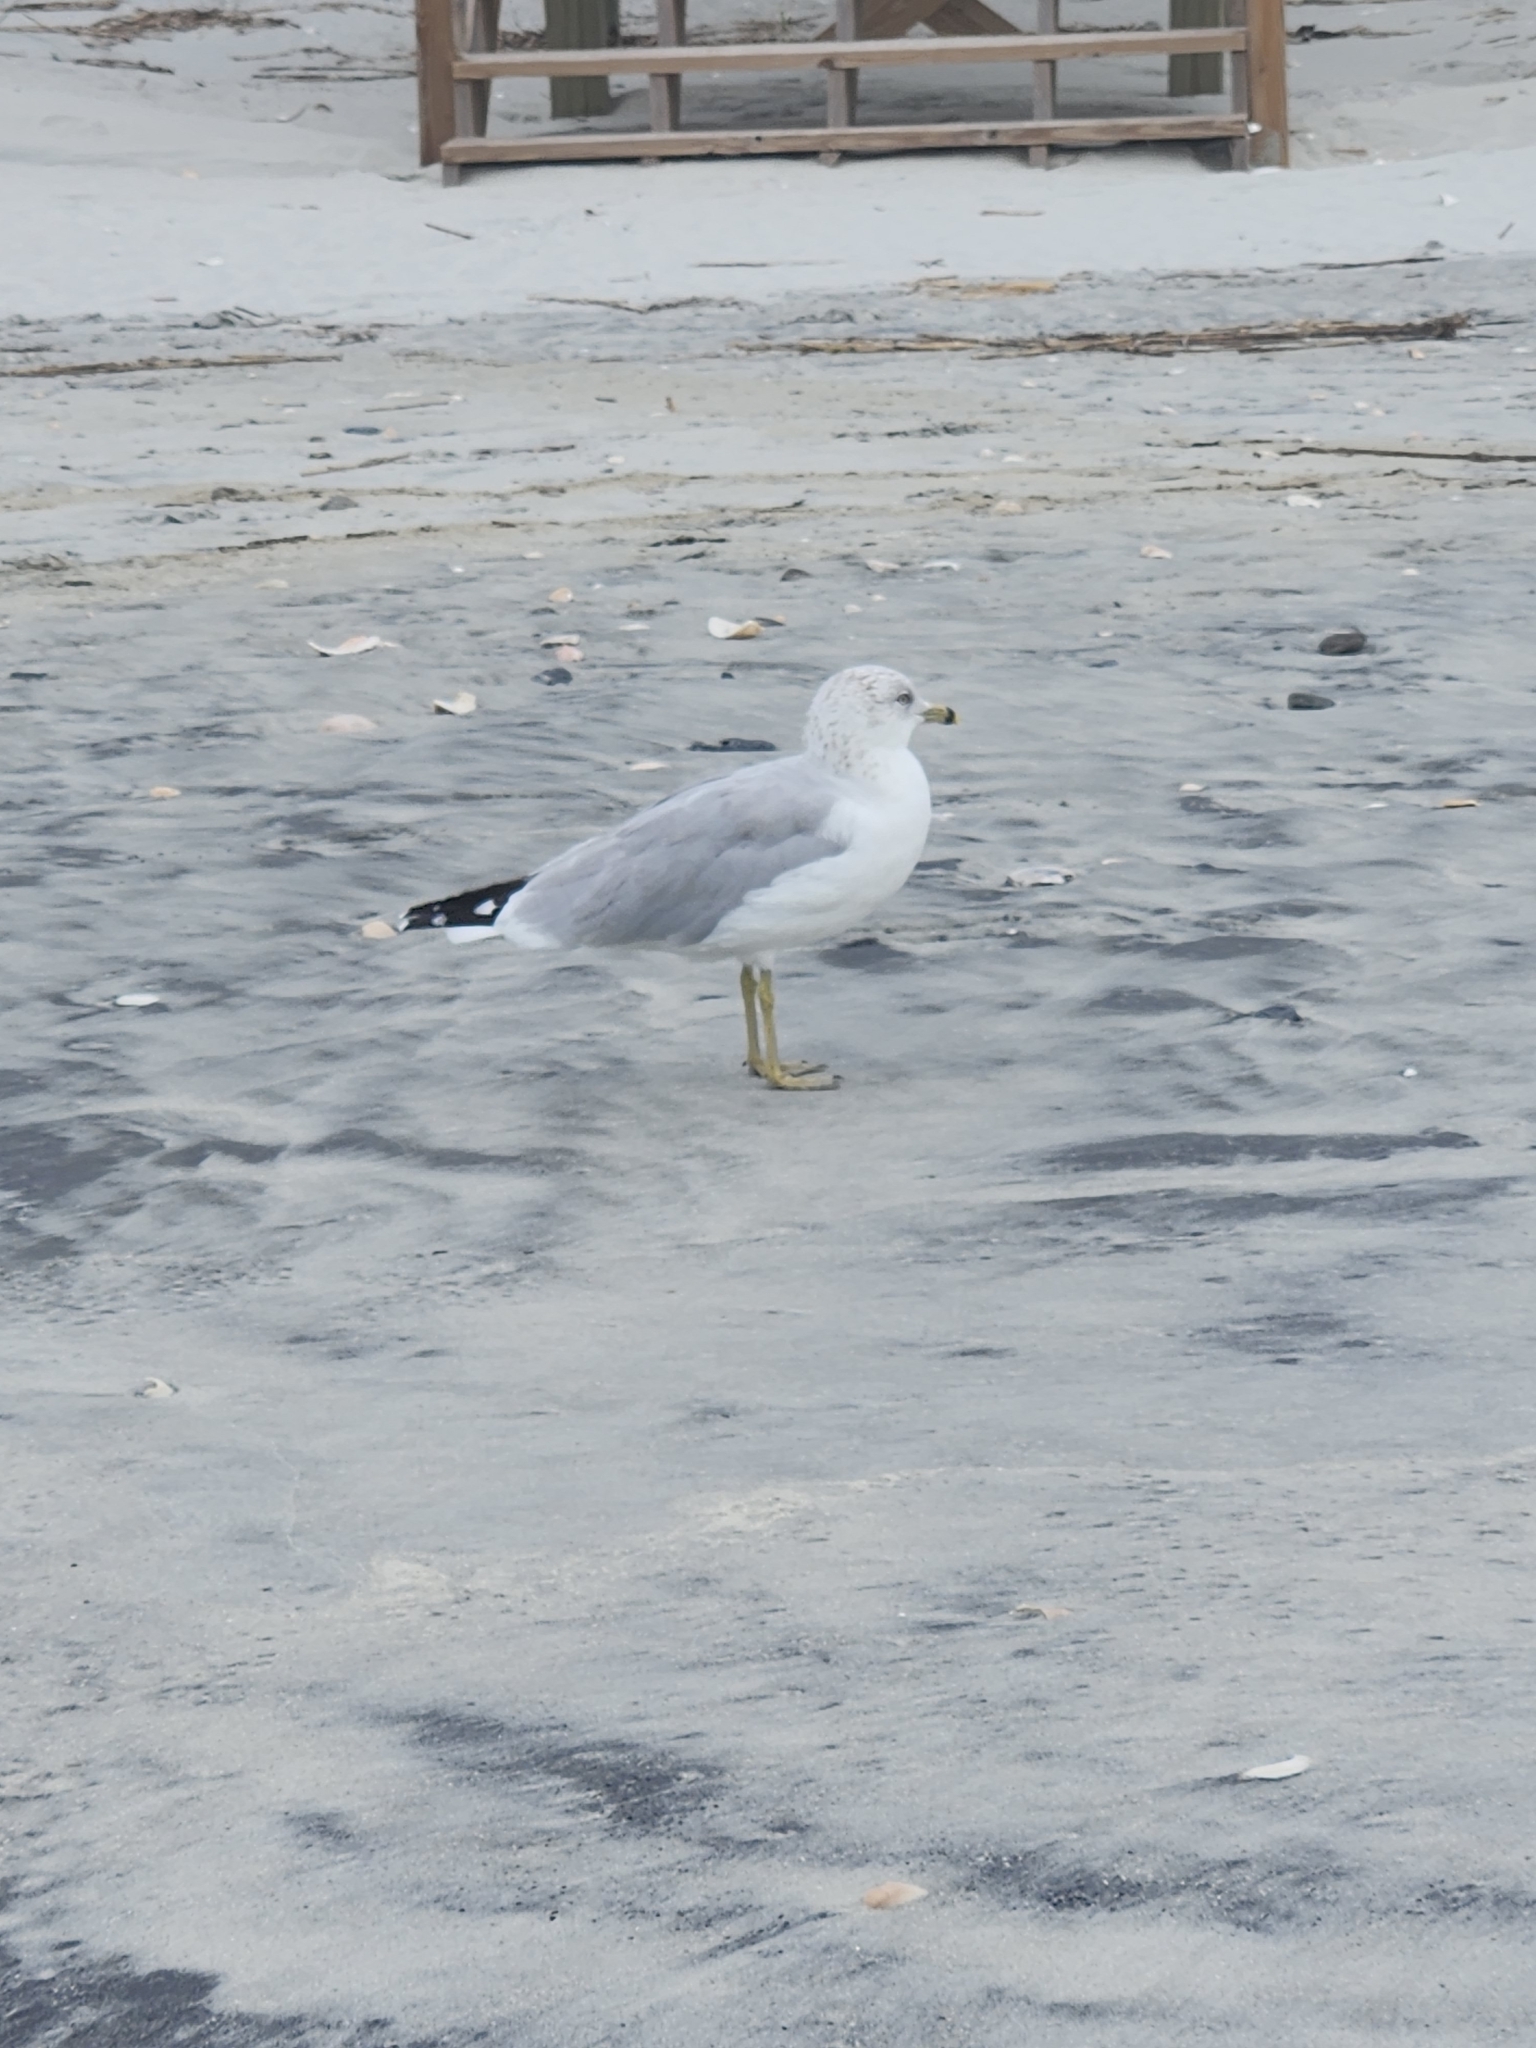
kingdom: Animalia
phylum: Chordata
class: Aves
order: Charadriiformes
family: Laridae
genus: Larus
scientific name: Larus delawarensis
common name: Ring-billed gull
